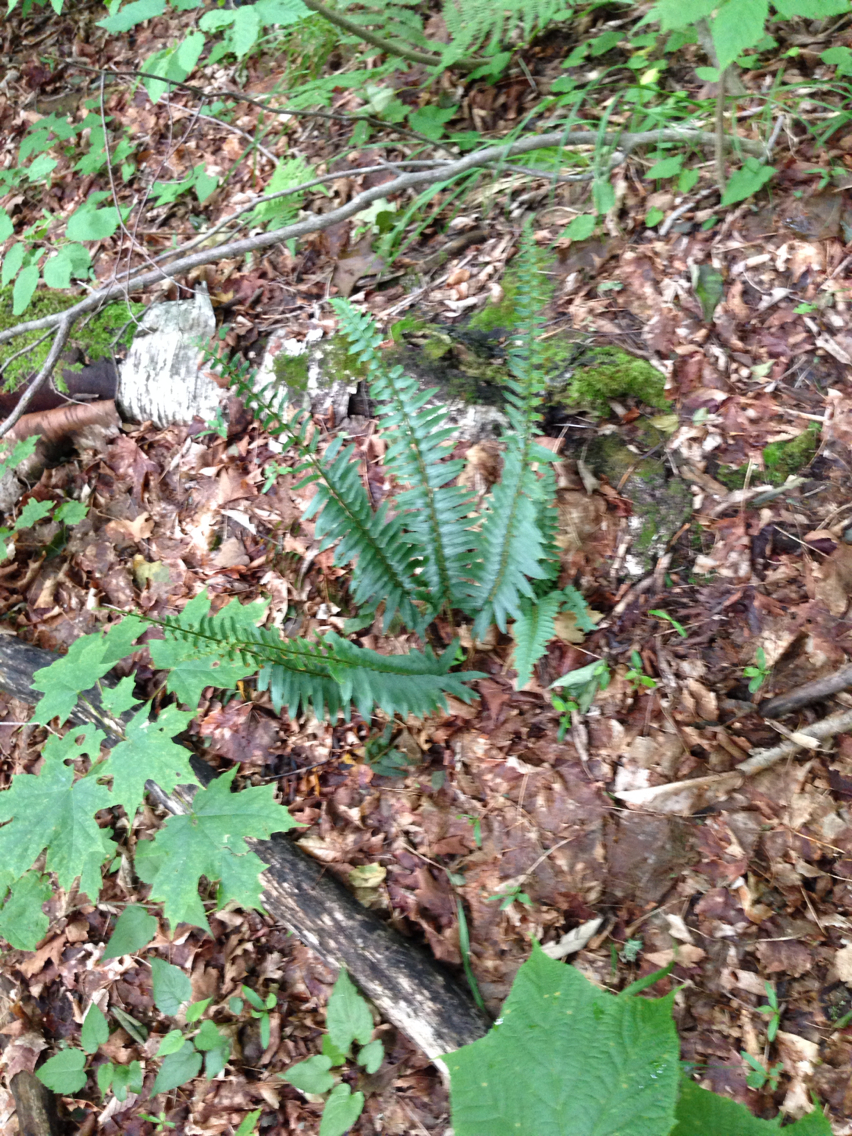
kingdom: Plantae
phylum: Tracheophyta
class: Polypodiopsida
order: Polypodiales
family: Dryopteridaceae
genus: Polystichum
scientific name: Polystichum acrostichoides
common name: Christmas fern
